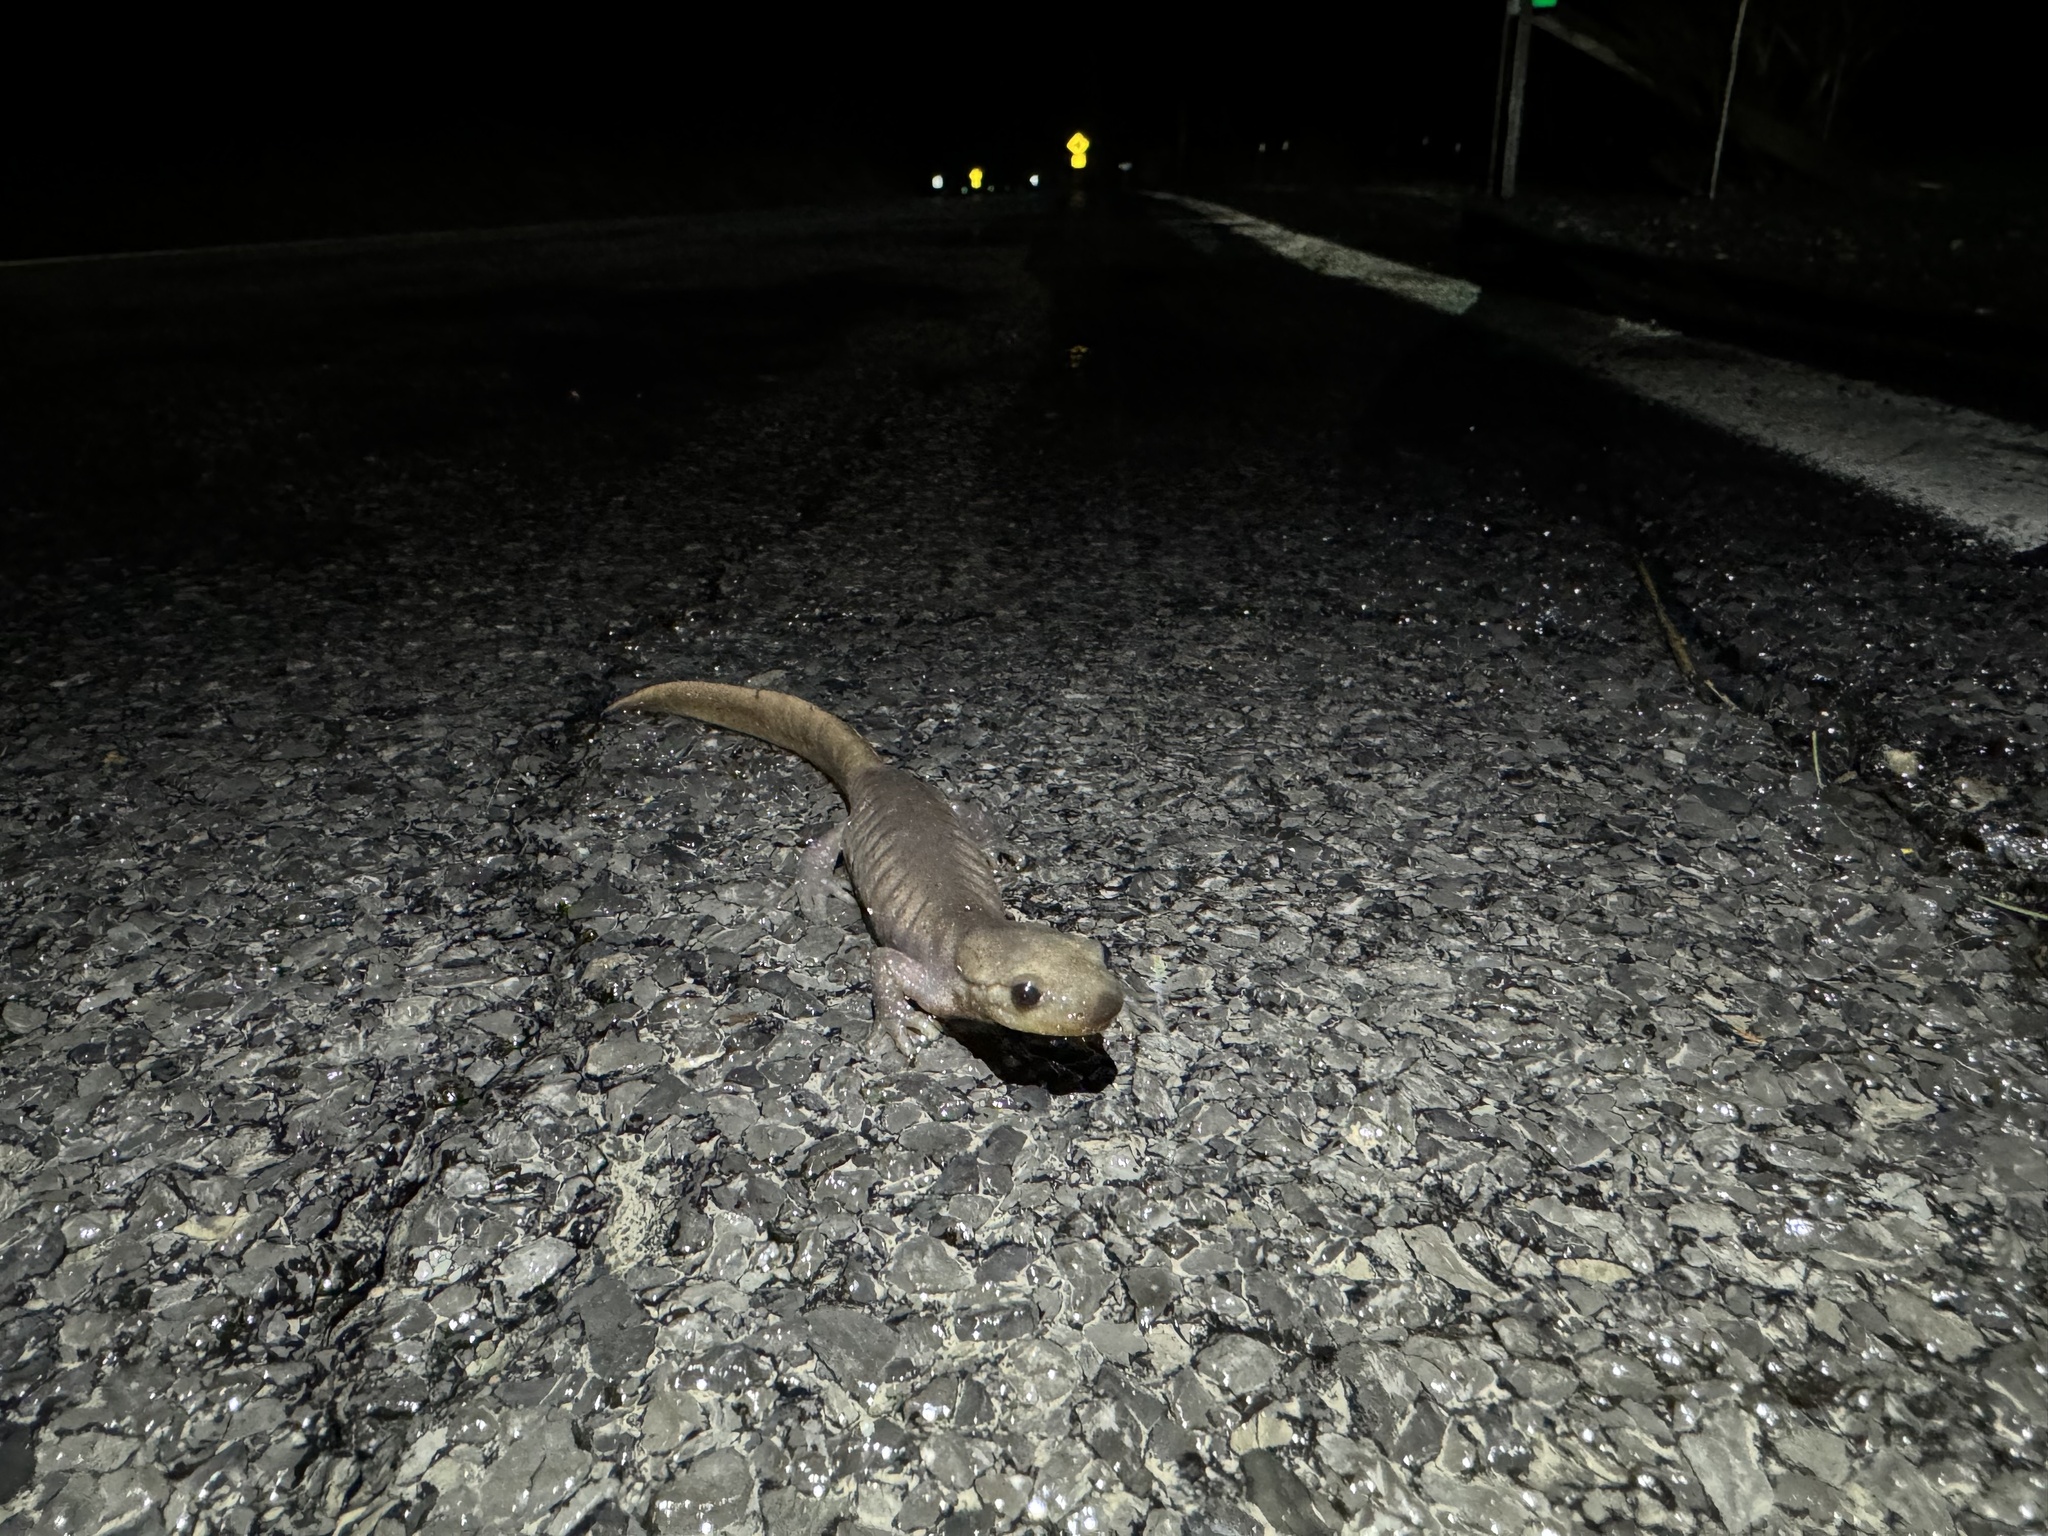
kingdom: Animalia
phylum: Chordata
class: Amphibia
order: Caudata
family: Ambystomatidae
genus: Ambystoma
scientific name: Ambystoma jeffersonianum
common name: Jefferson salamander
